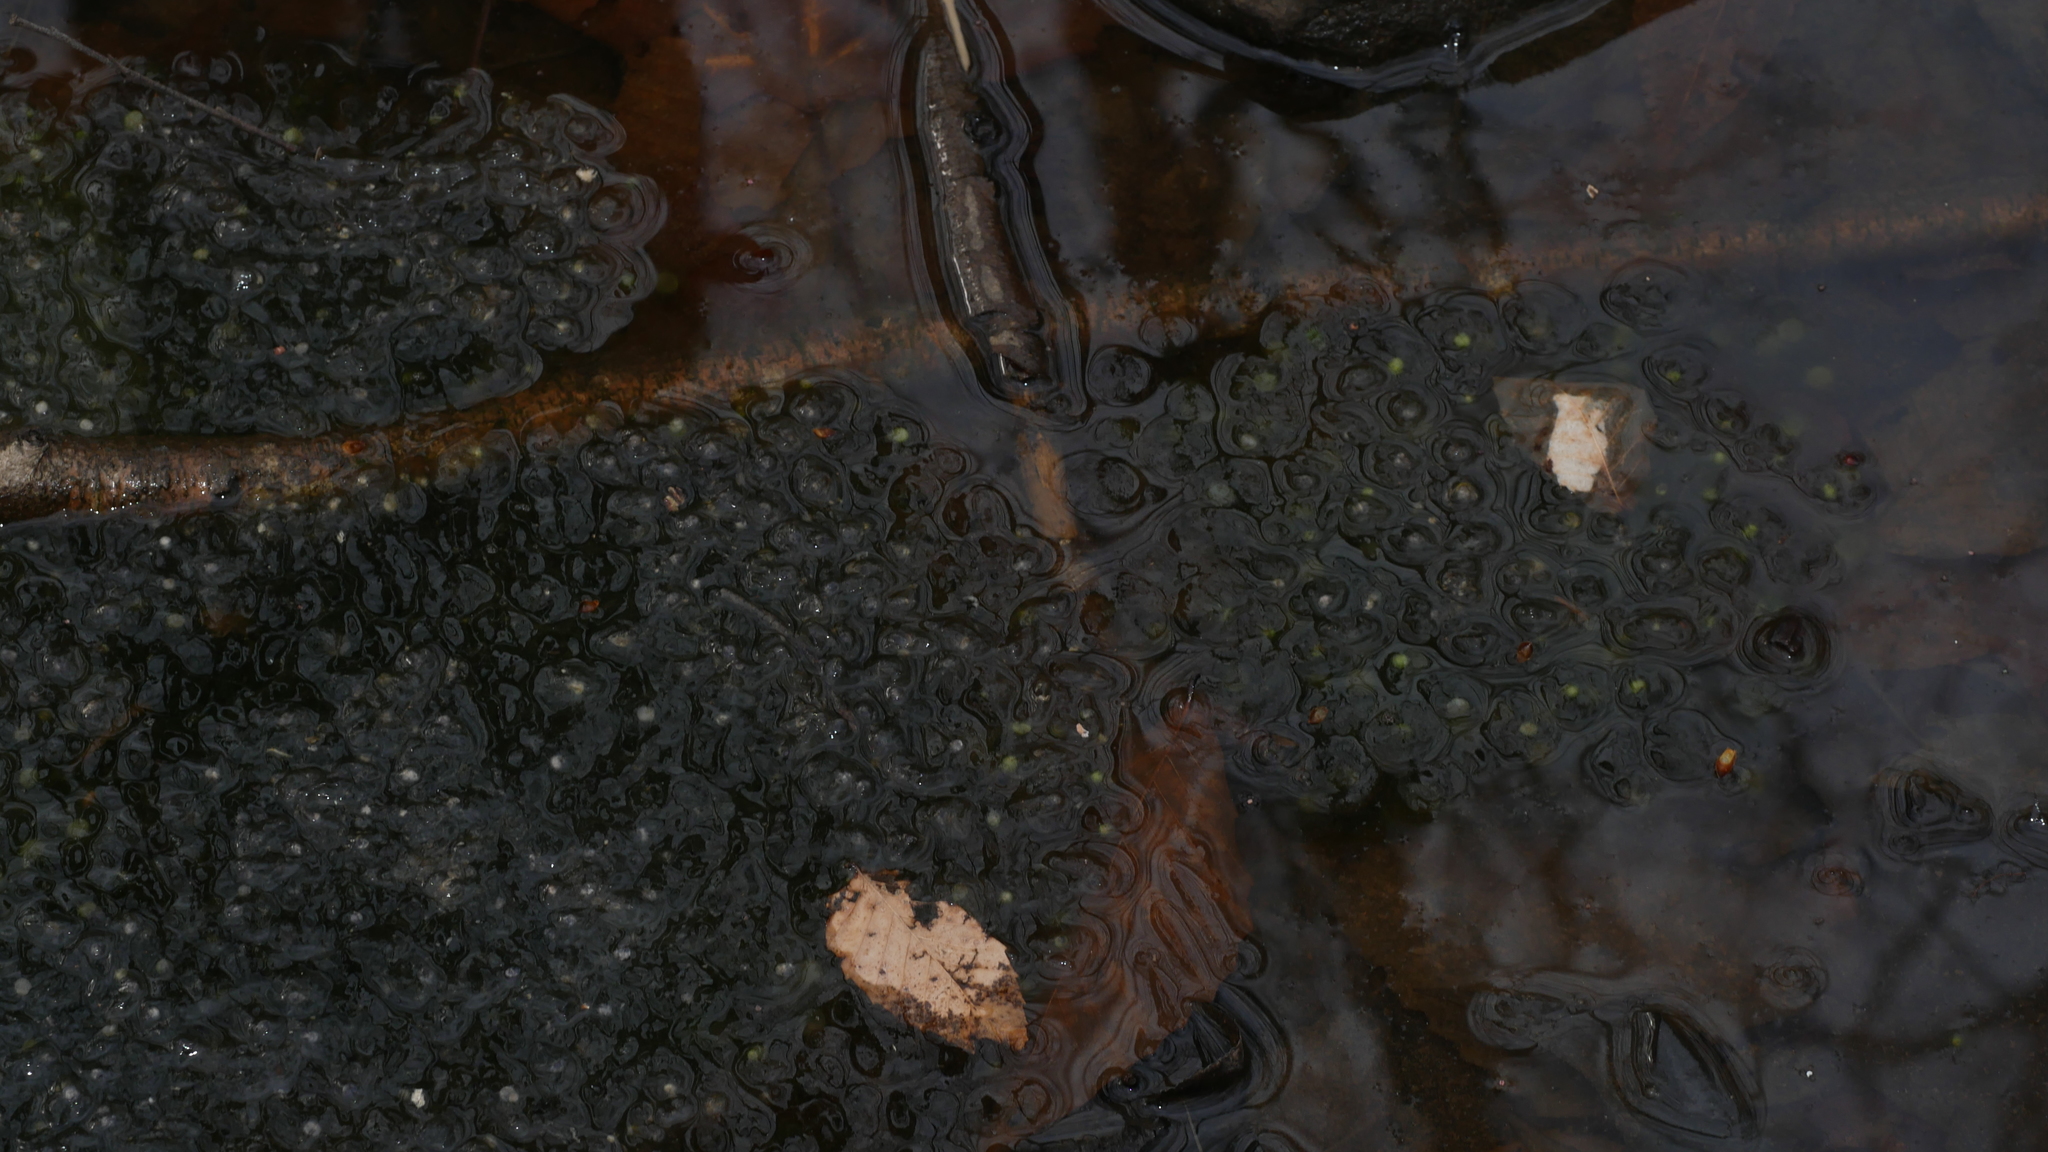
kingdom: Animalia
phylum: Chordata
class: Amphibia
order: Anura
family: Ranidae
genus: Lithobates
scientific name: Lithobates sylvaticus
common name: Wood frog
